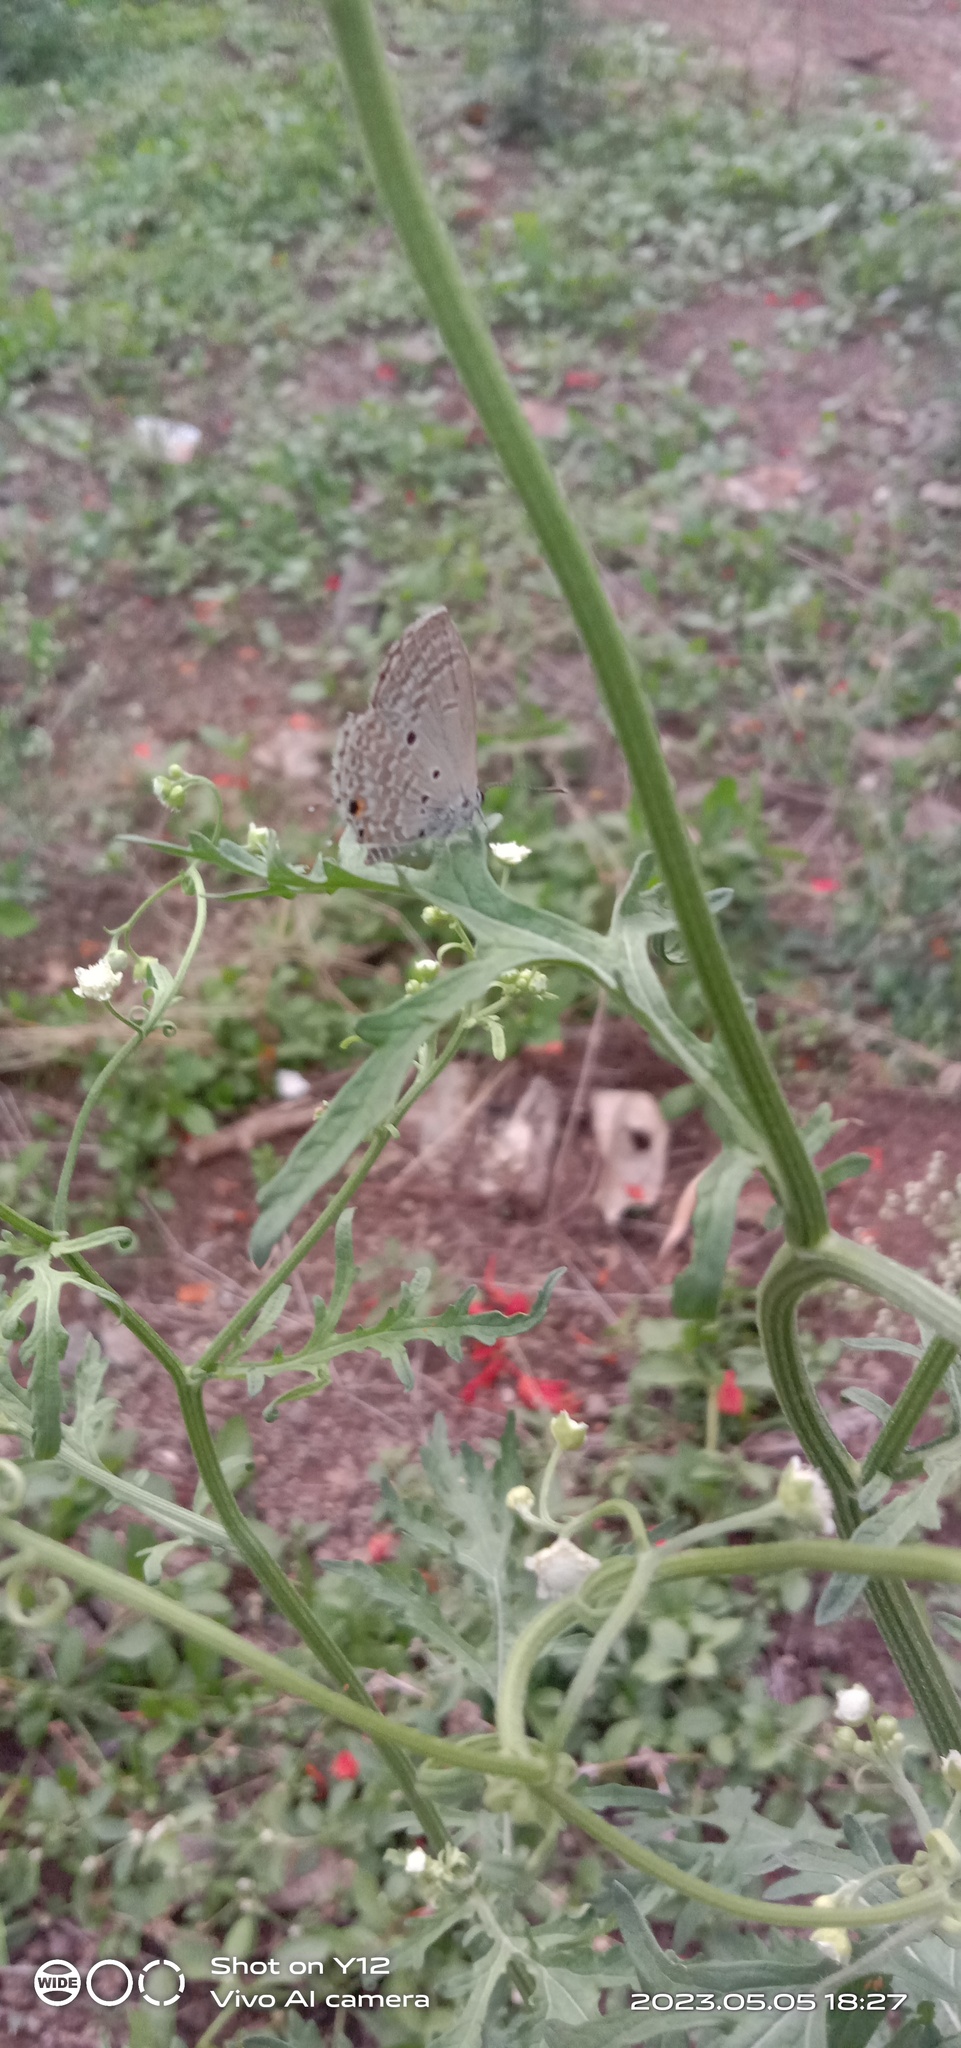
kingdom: Animalia
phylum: Arthropoda
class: Insecta
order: Lepidoptera
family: Lycaenidae
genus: Luthrodes
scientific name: Luthrodes pandava
